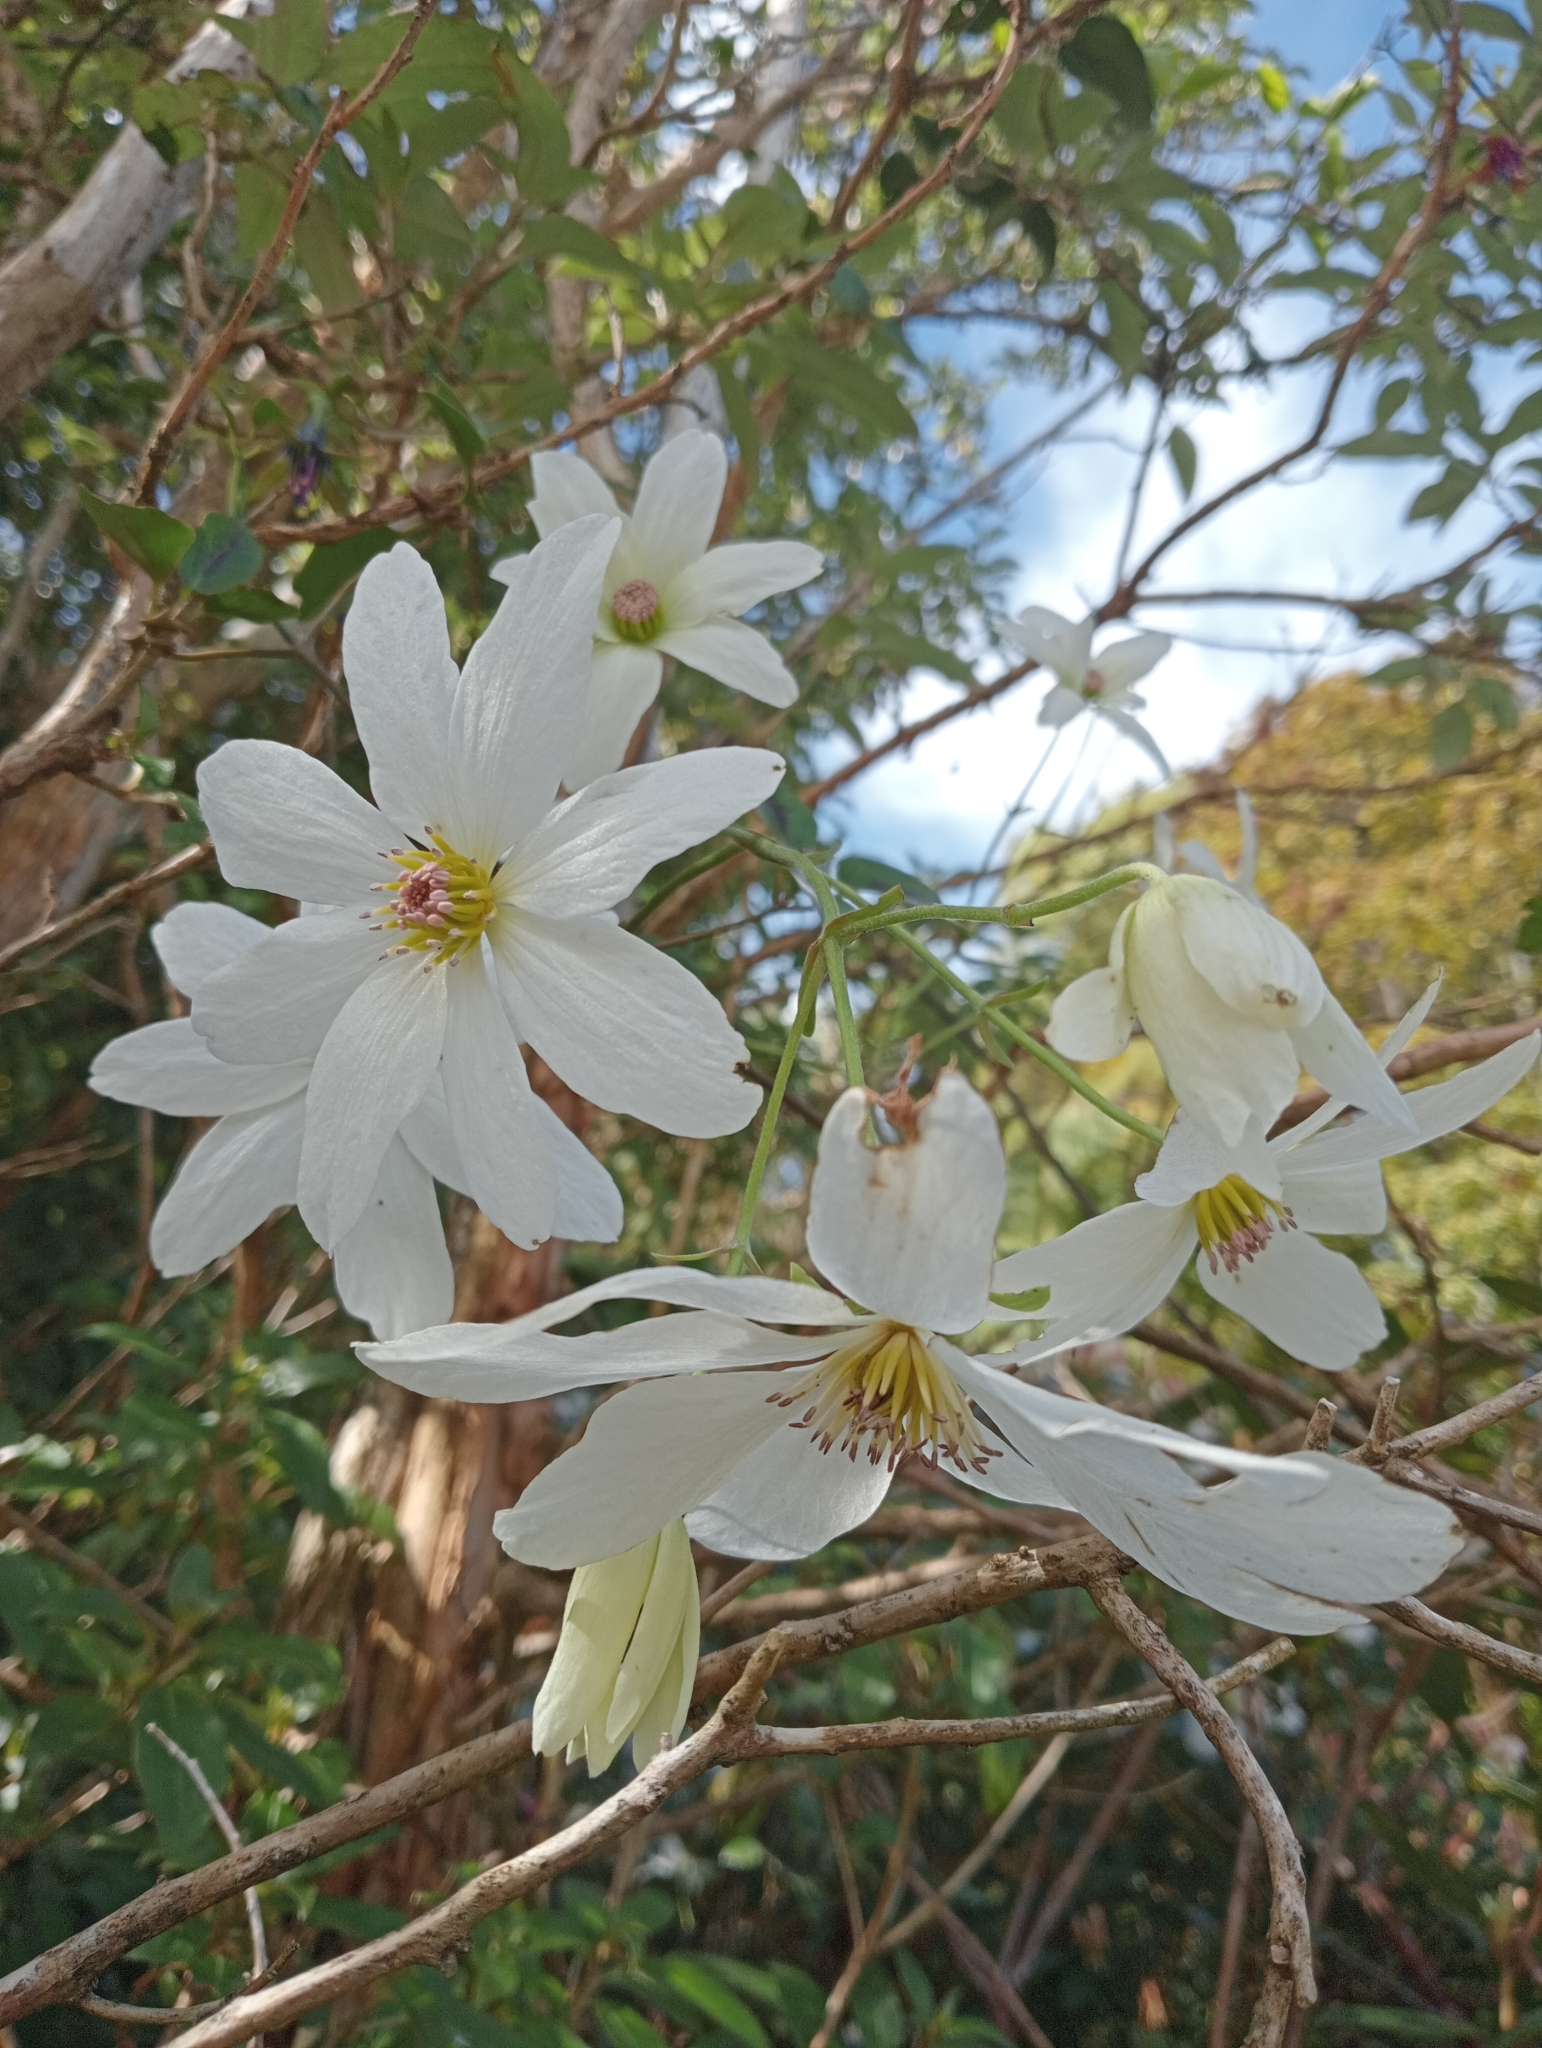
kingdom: Plantae
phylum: Tracheophyta
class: Magnoliopsida
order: Ranunculales
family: Ranunculaceae
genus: Clematis
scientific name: Clematis paniculata
